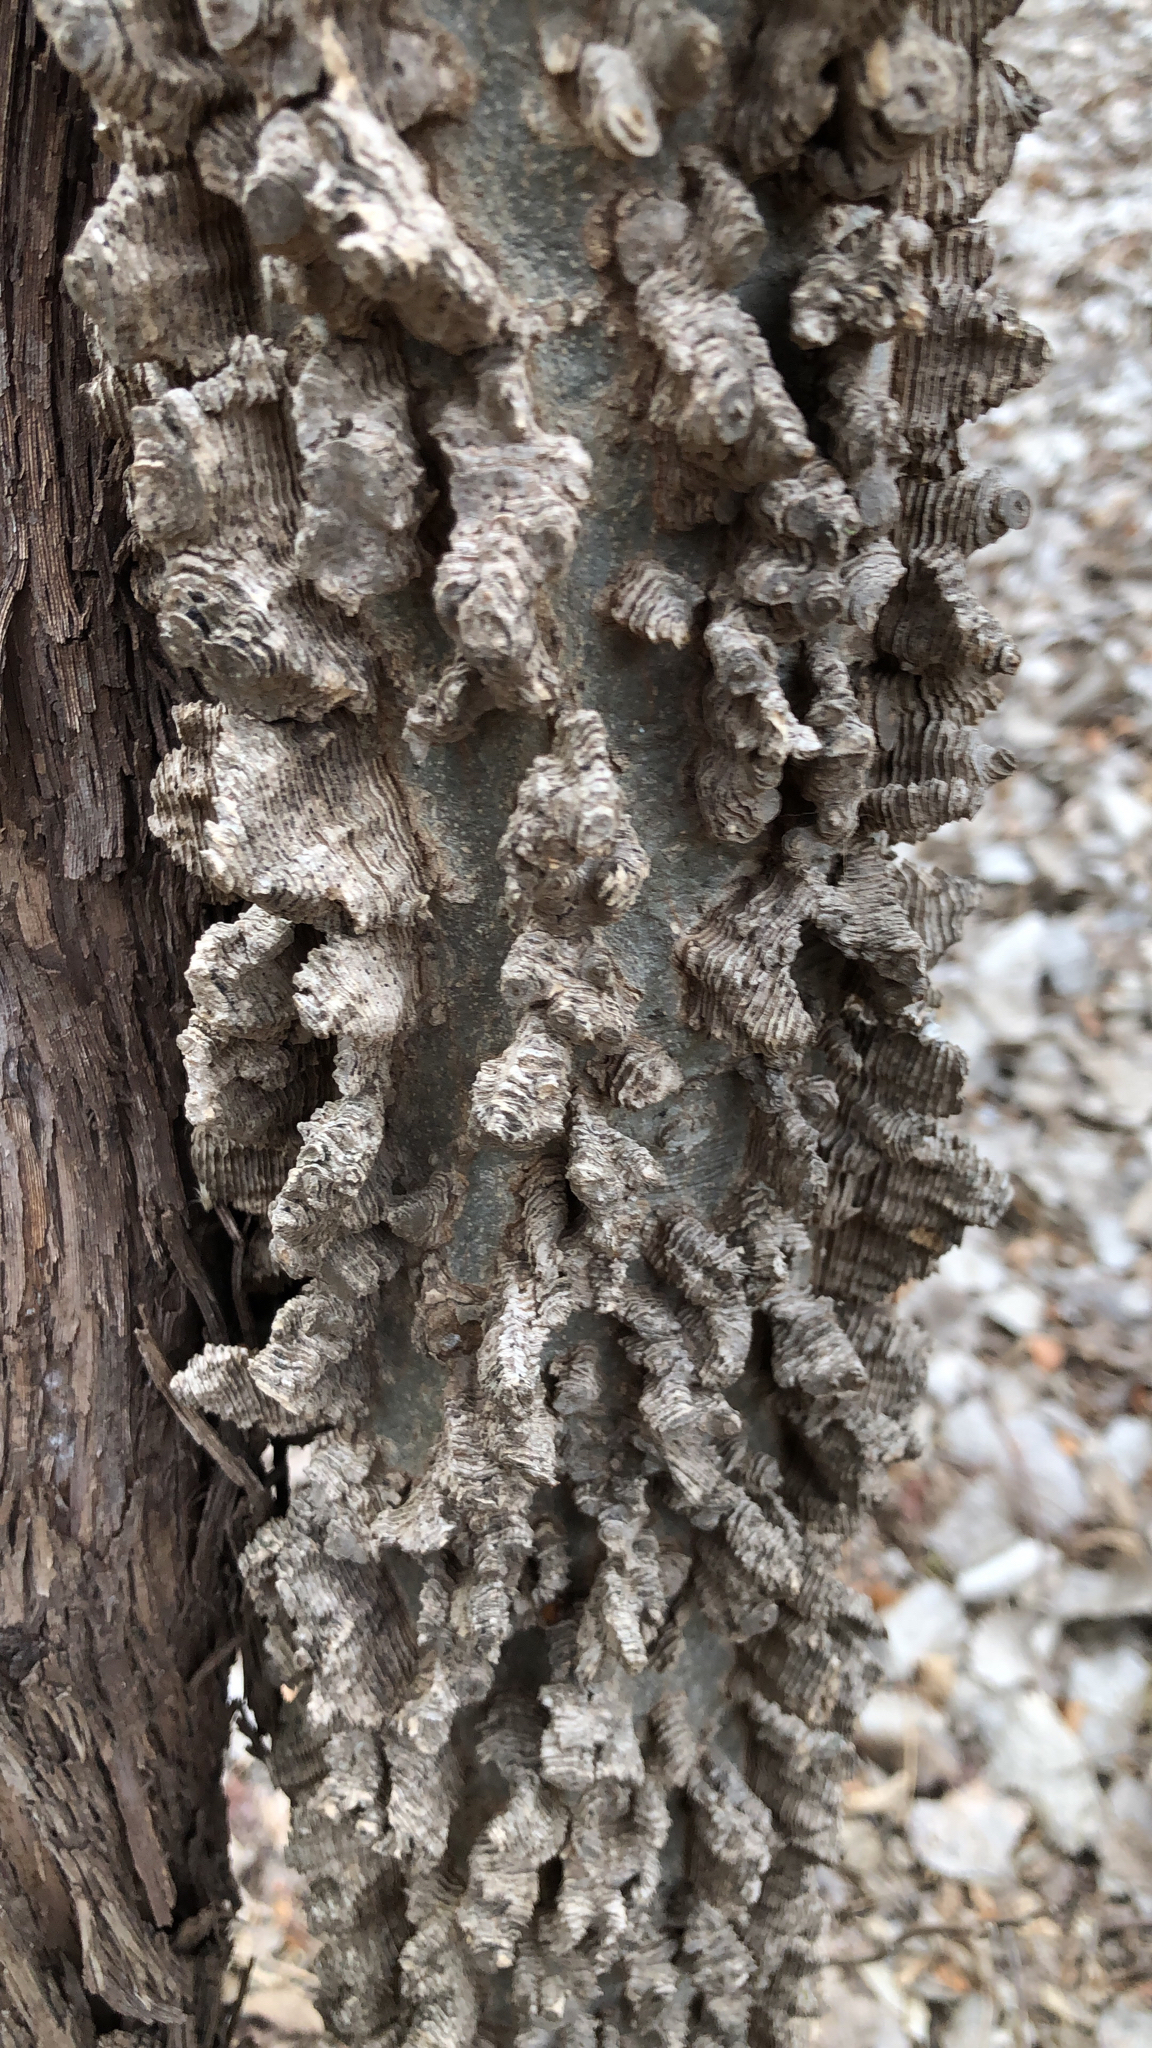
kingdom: Plantae
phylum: Tracheophyta
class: Magnoliopsida
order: Rosales
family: Cannabaceae
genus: Celtis
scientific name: Celtis laevigata
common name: Sugarberry
